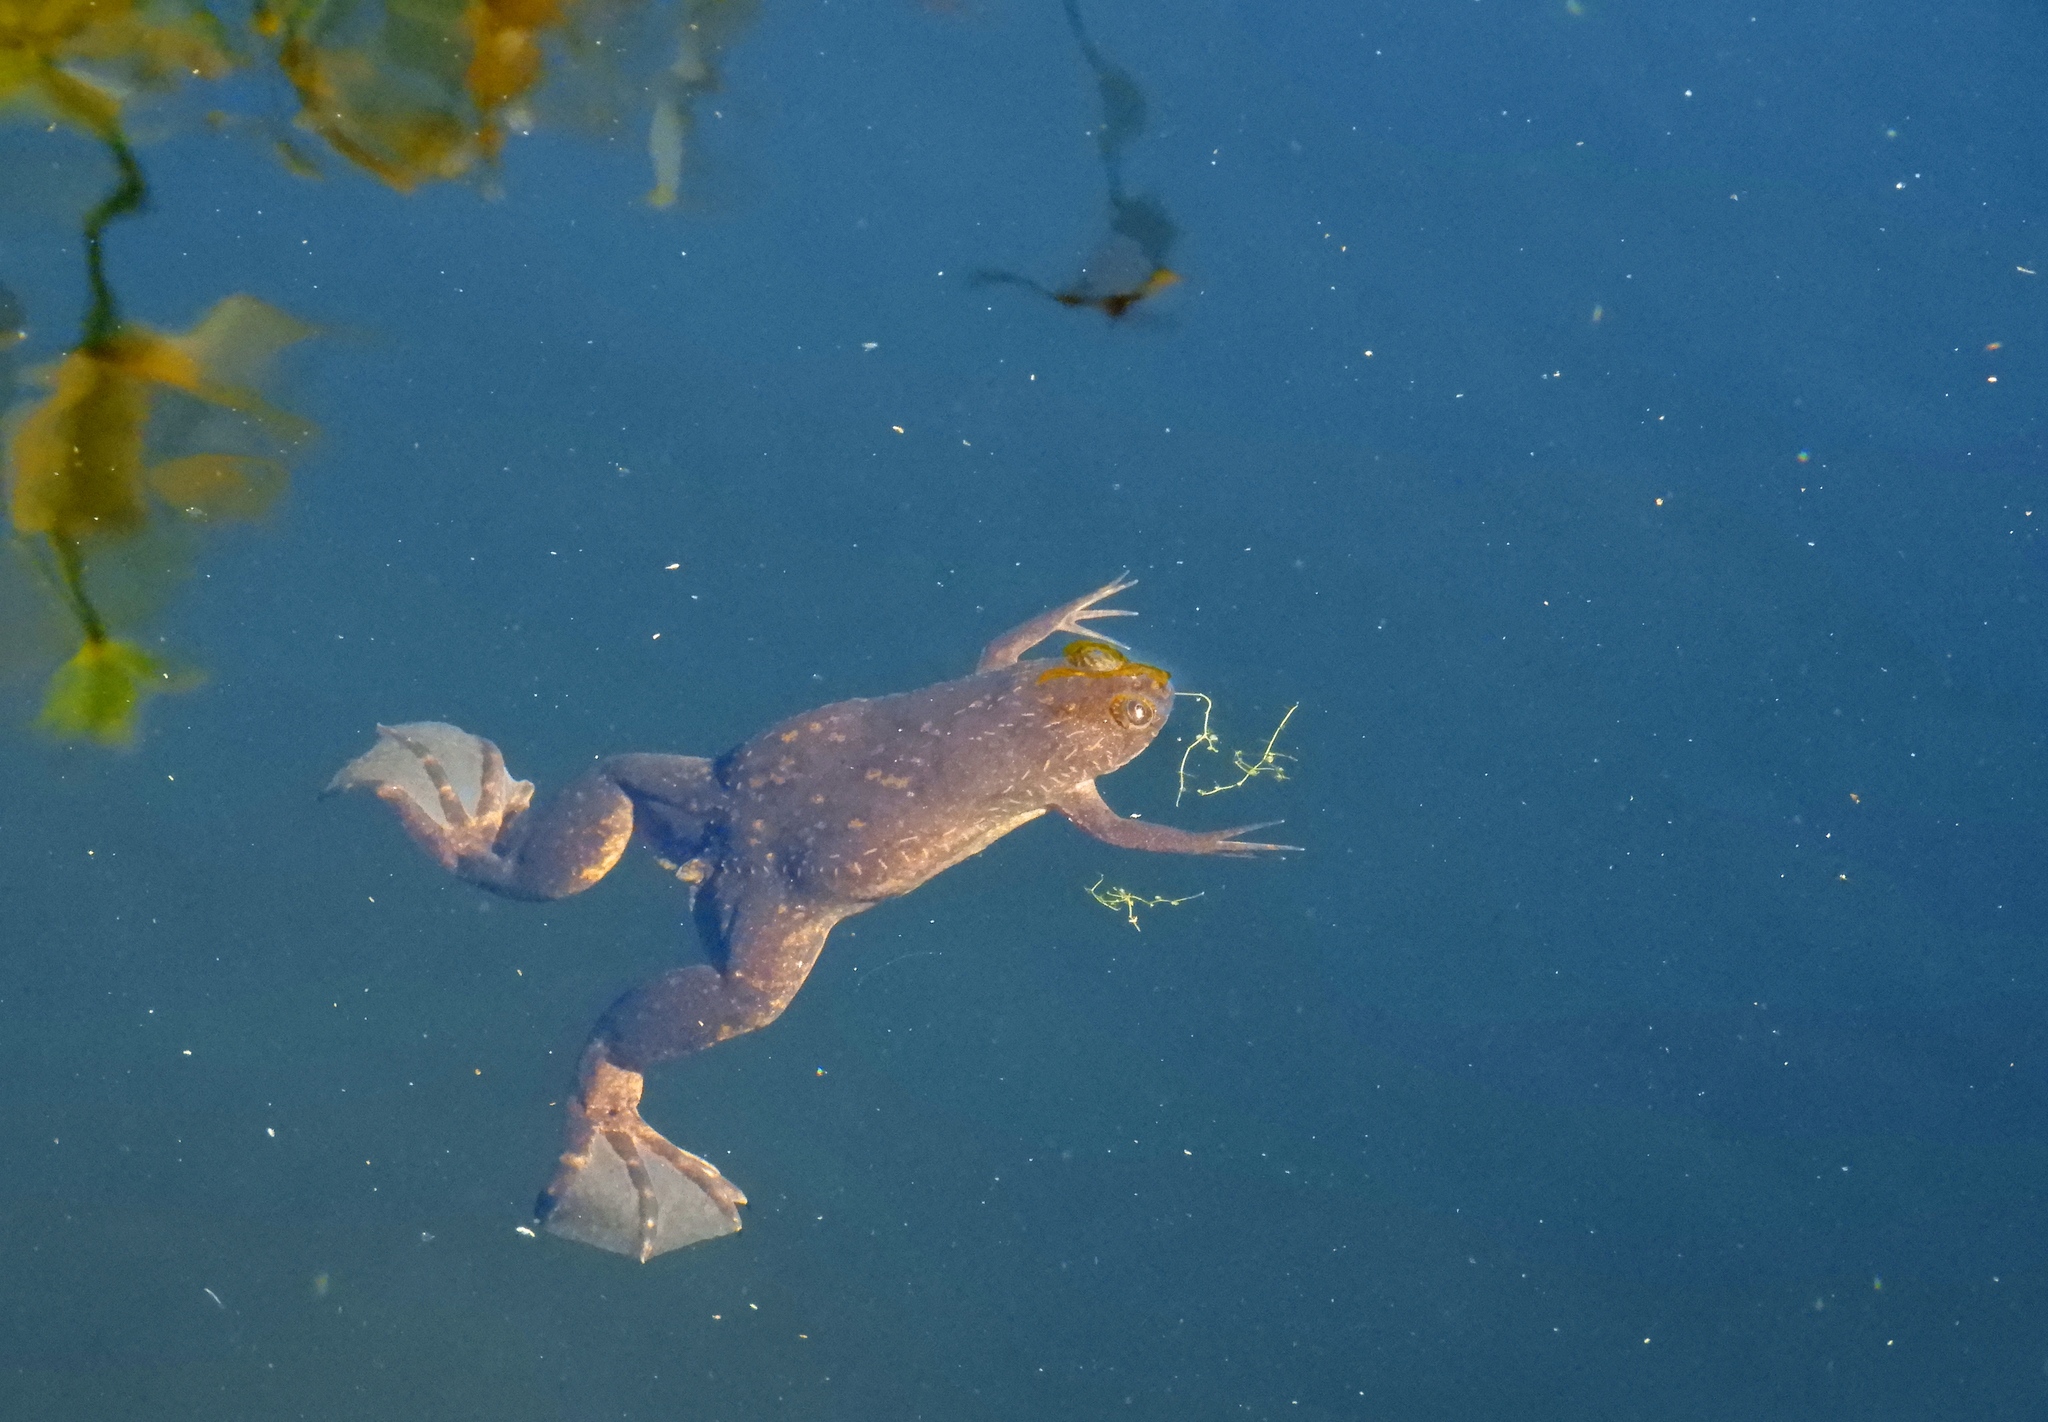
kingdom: Animalia
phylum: Chordata
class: Amphibia
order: Anura
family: Pipidae
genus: Xenopus
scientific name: Xenopus laevis
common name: African clawed frog
